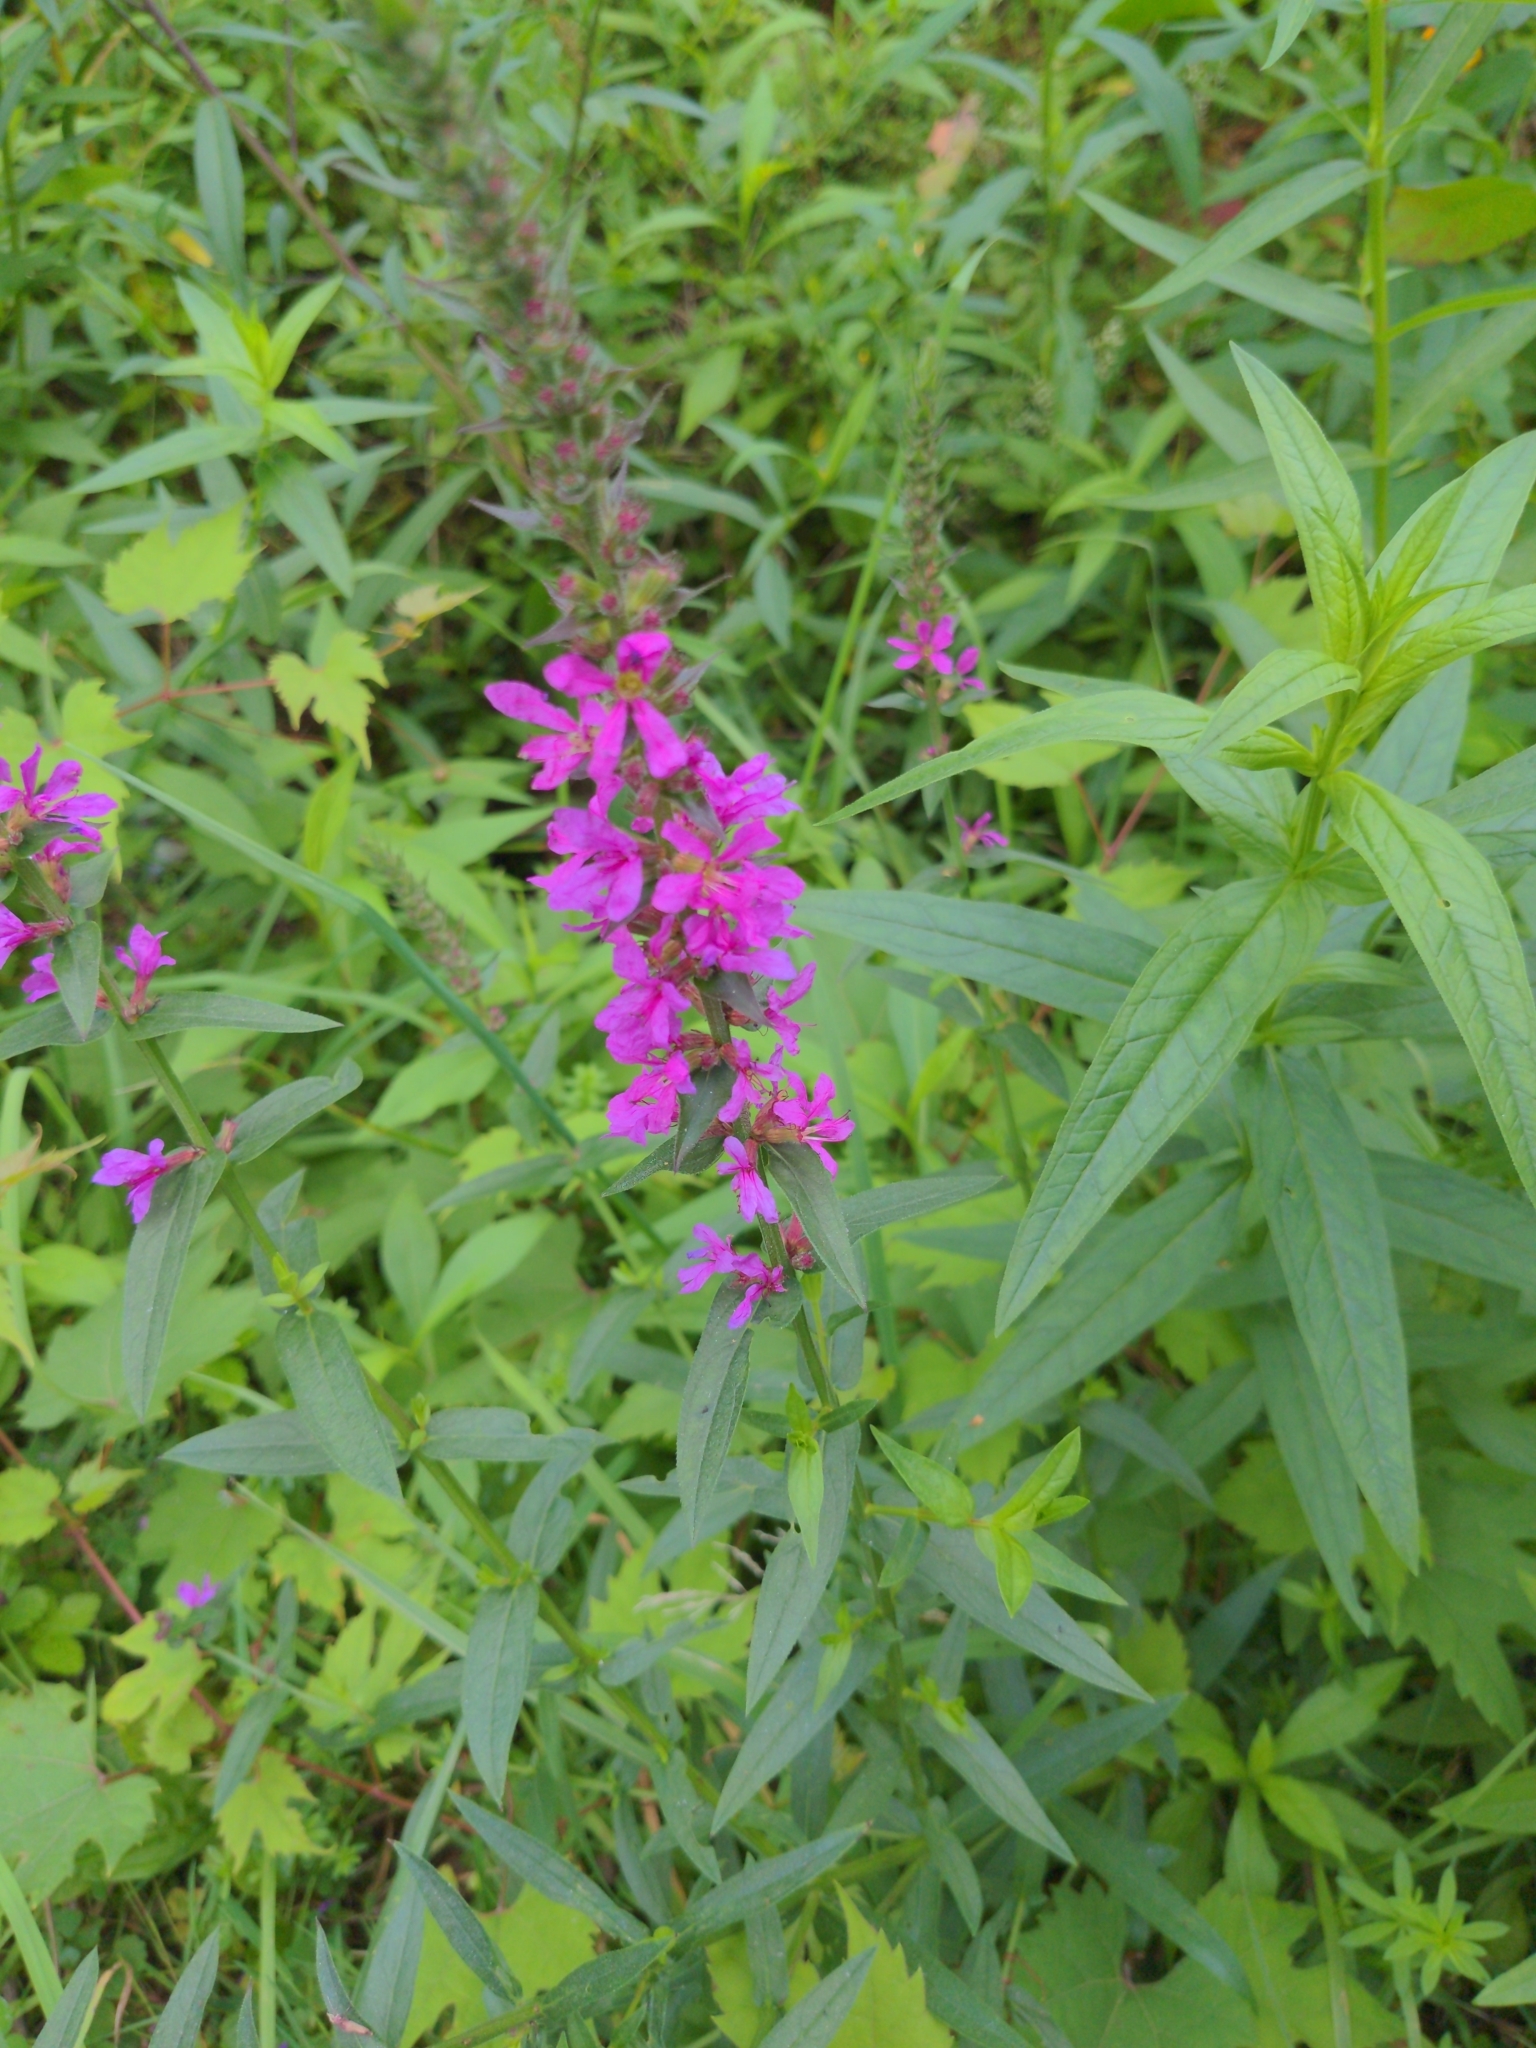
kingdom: Plantae
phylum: Tracheophyta
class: Magnoliopsida
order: Myrtales
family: Lythraceae
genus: Lythrum
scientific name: Lythrum salicaria
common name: Purple loosestrife
